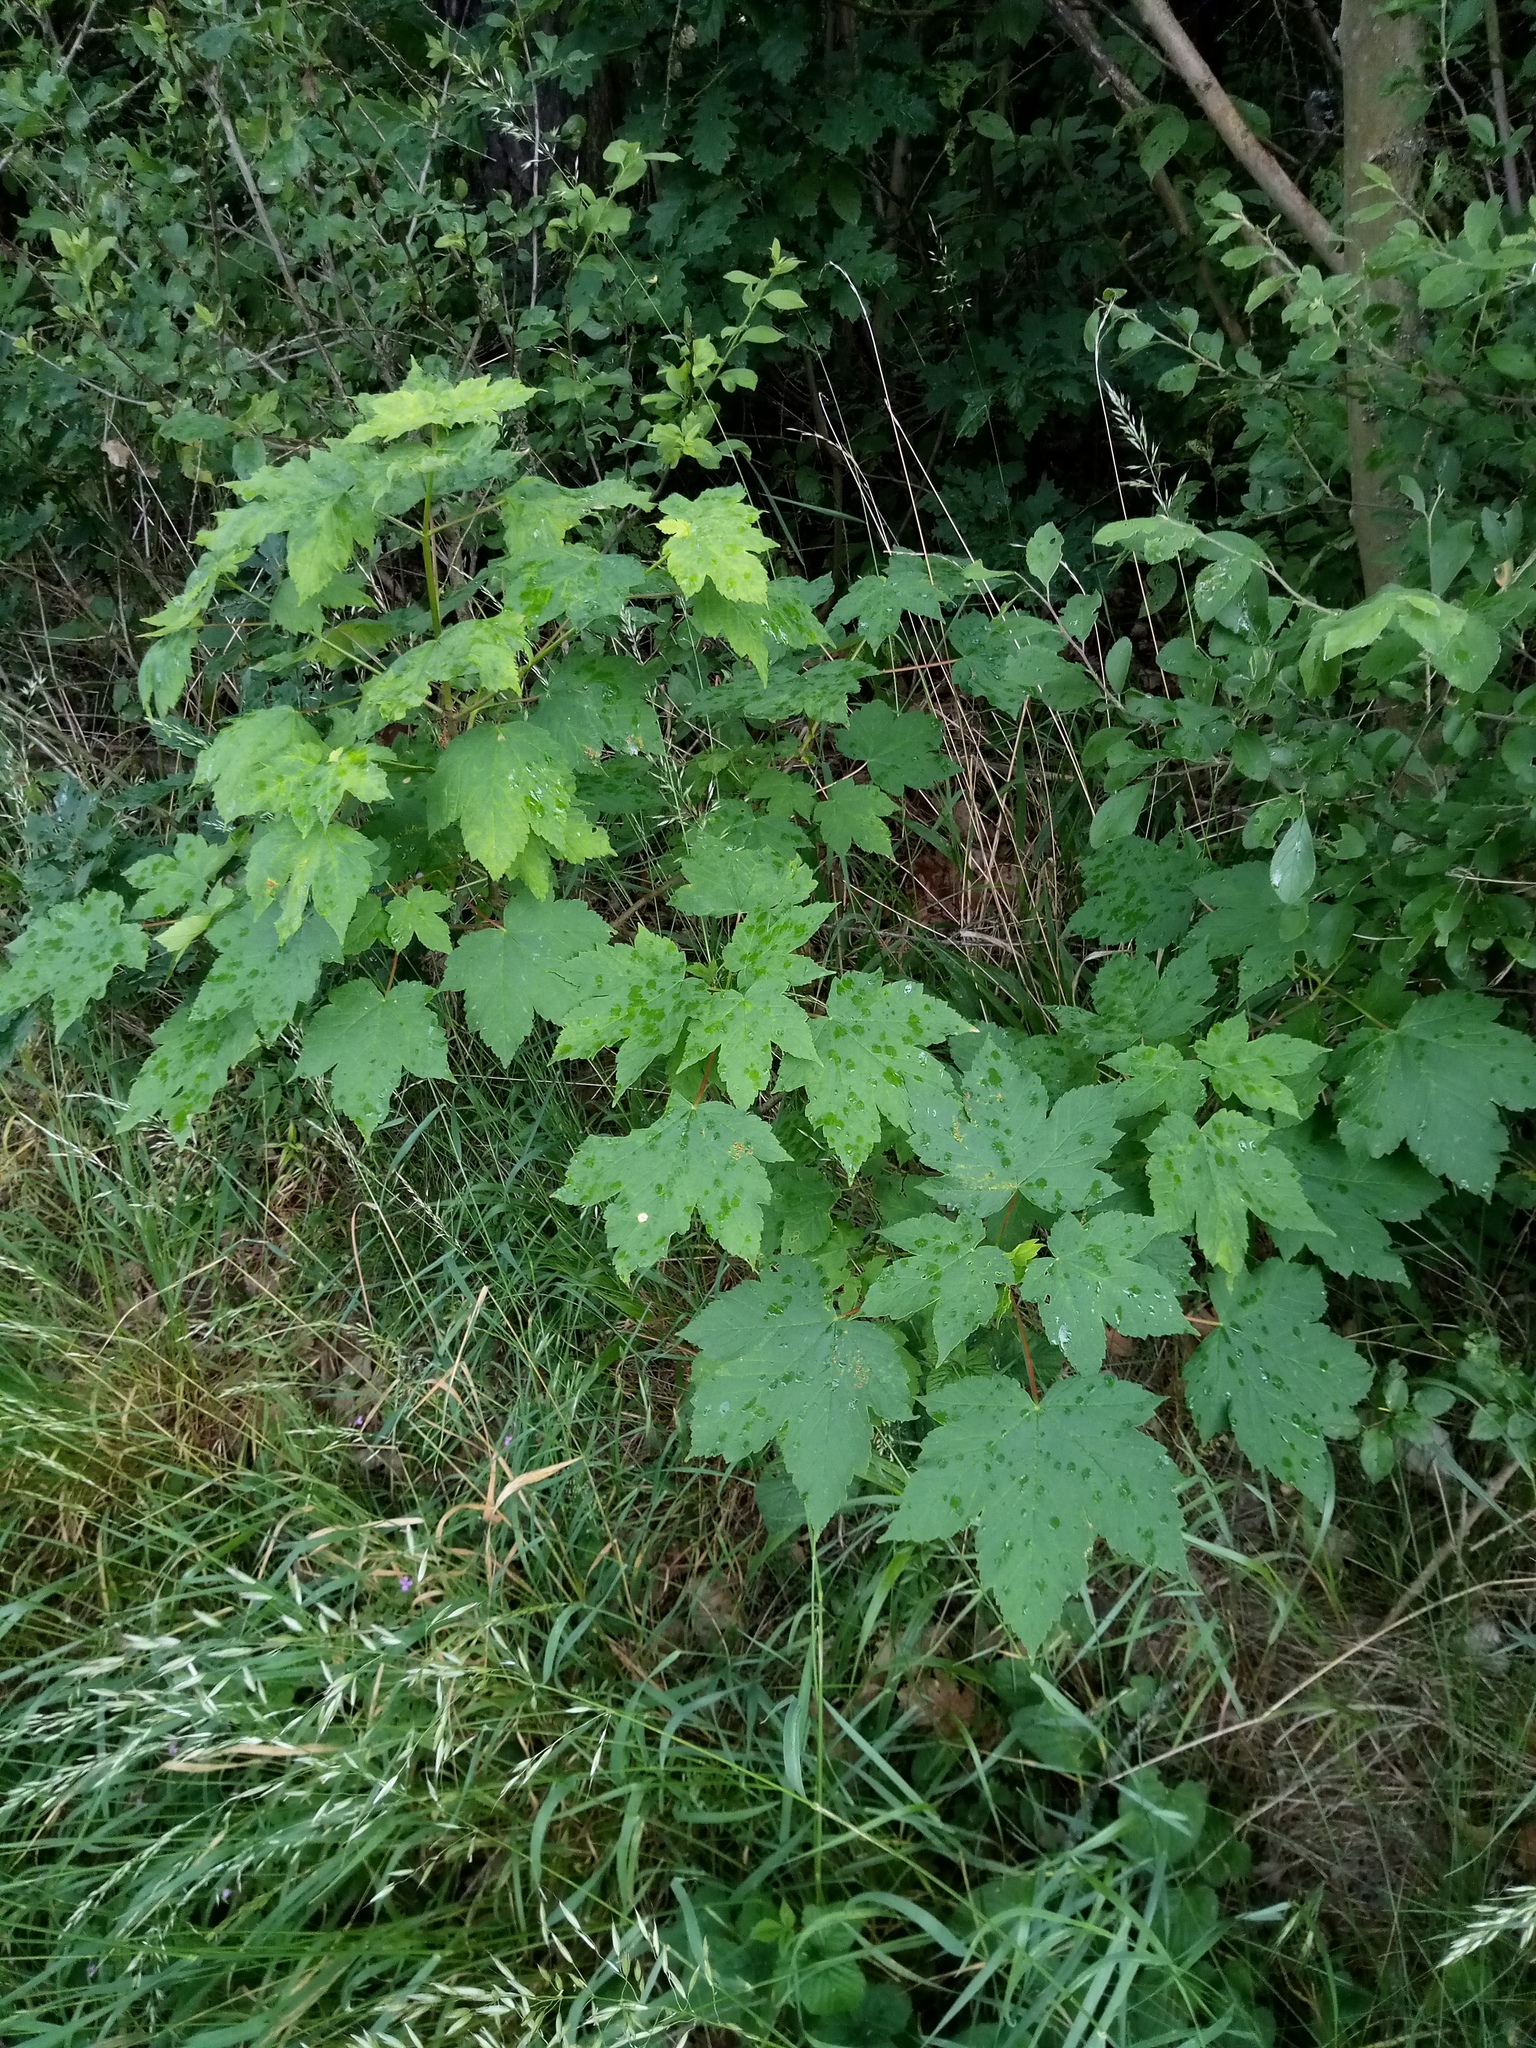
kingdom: Plantae
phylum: Tracheophyta
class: Magnoliopsida
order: Sapindales
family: Sapindaceae
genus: Acer
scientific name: Acer pseudoplatanus
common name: Sycamore
